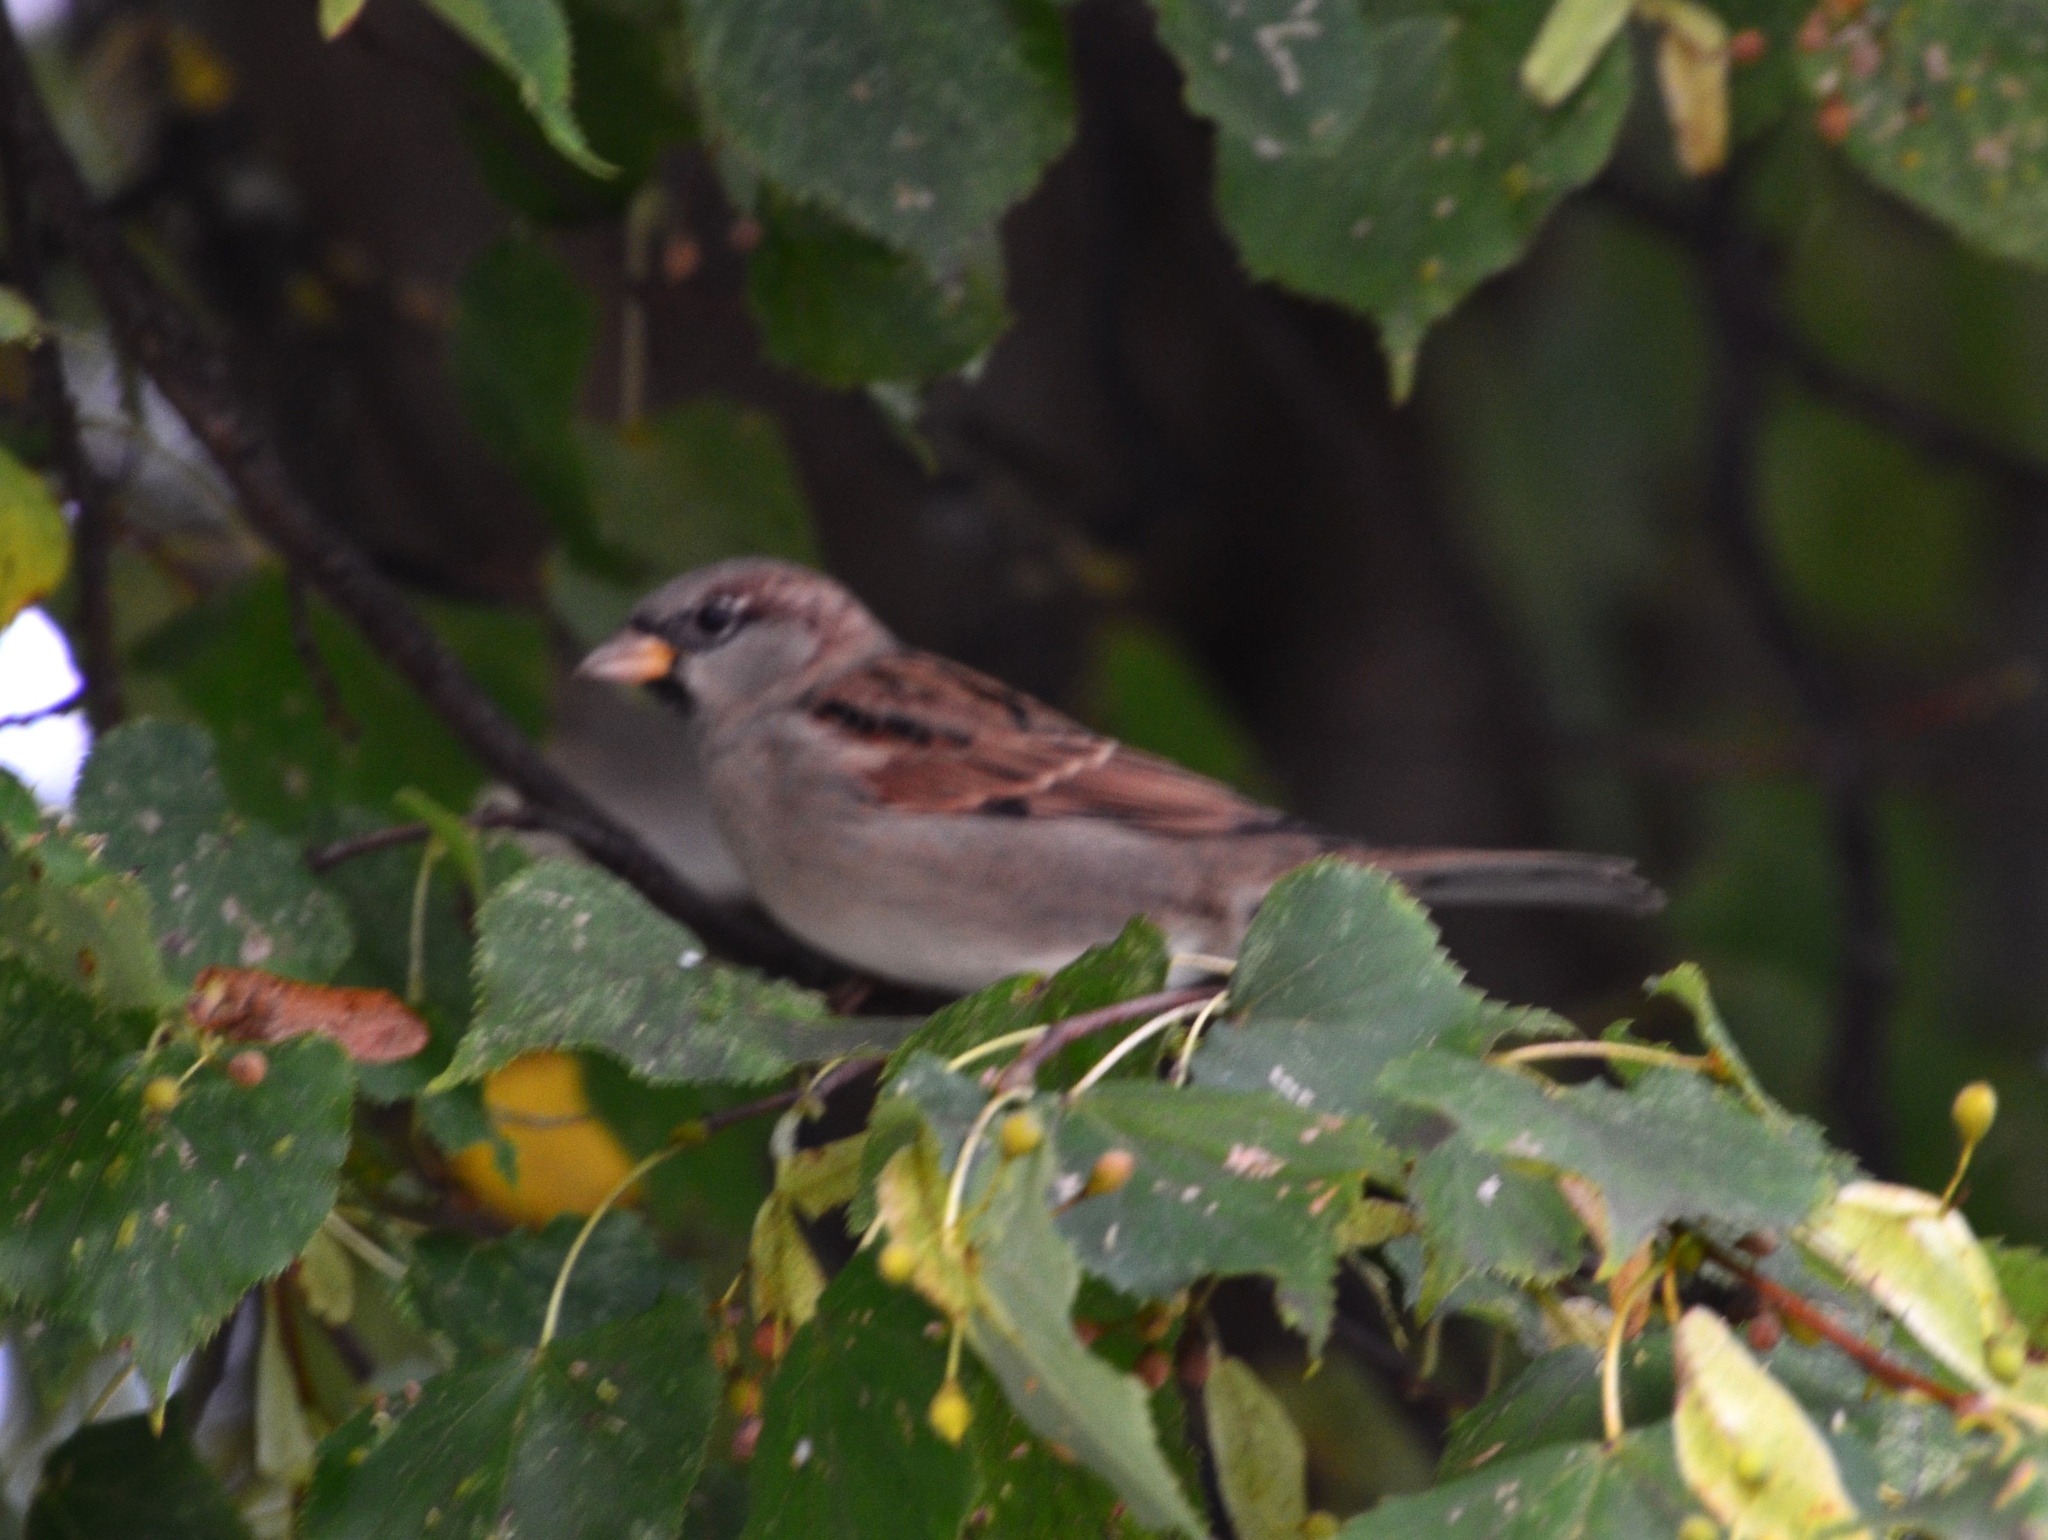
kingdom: Animalia
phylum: Chordata
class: Aves
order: Passeriformes
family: Passeridae
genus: Passer
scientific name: Passer domesticus
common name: House sparrow
